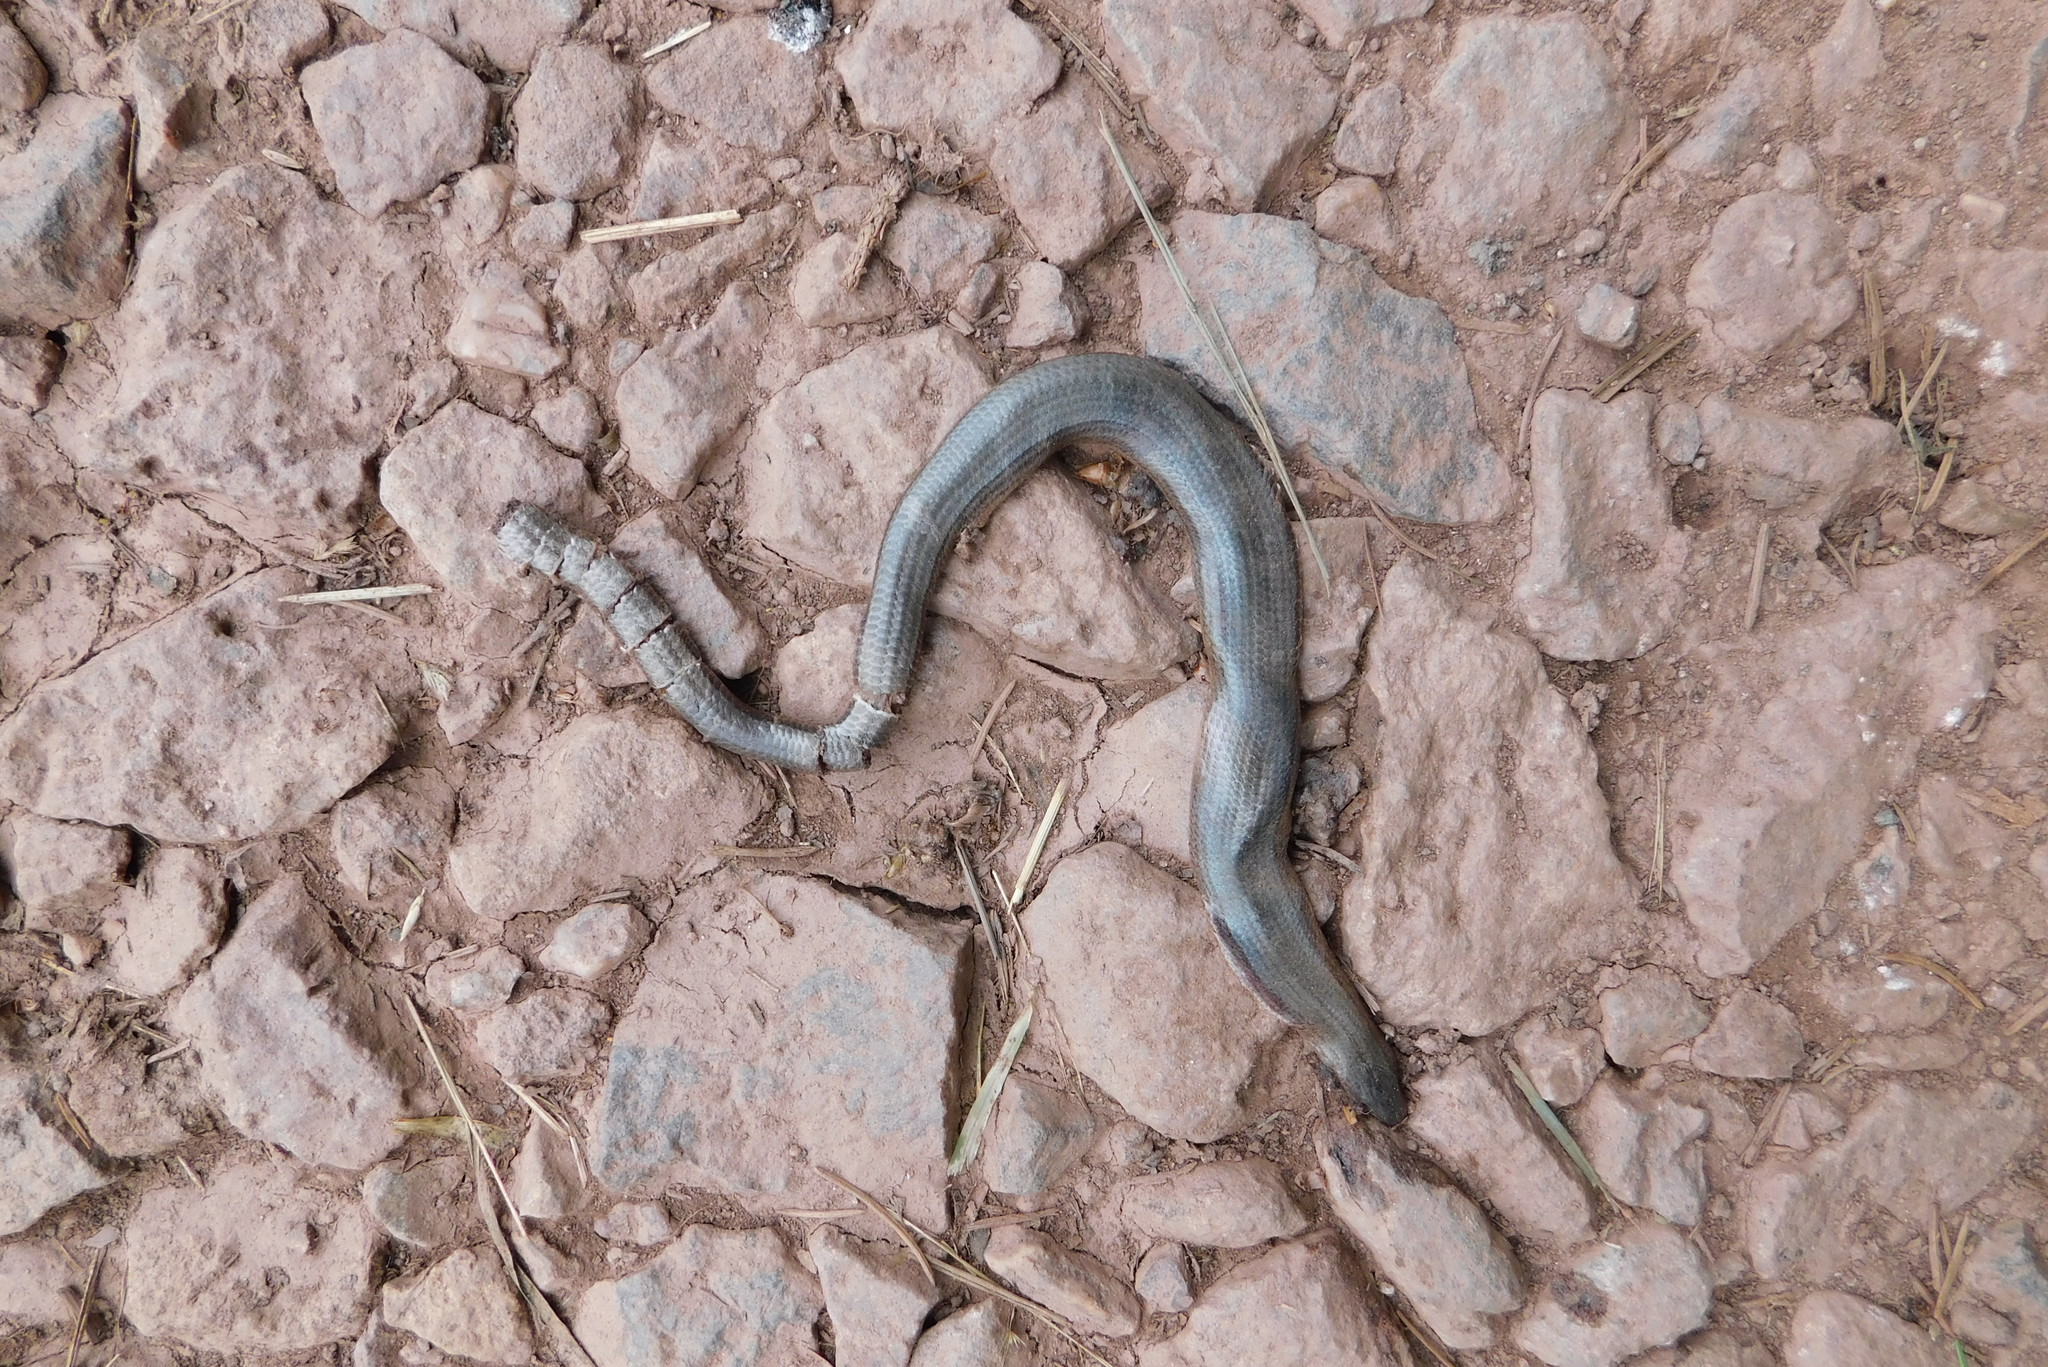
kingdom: Animalia
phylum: Chordata
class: Squamata
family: Anguidae
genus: Anguis
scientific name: Anguis fragilis
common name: Slow worm
